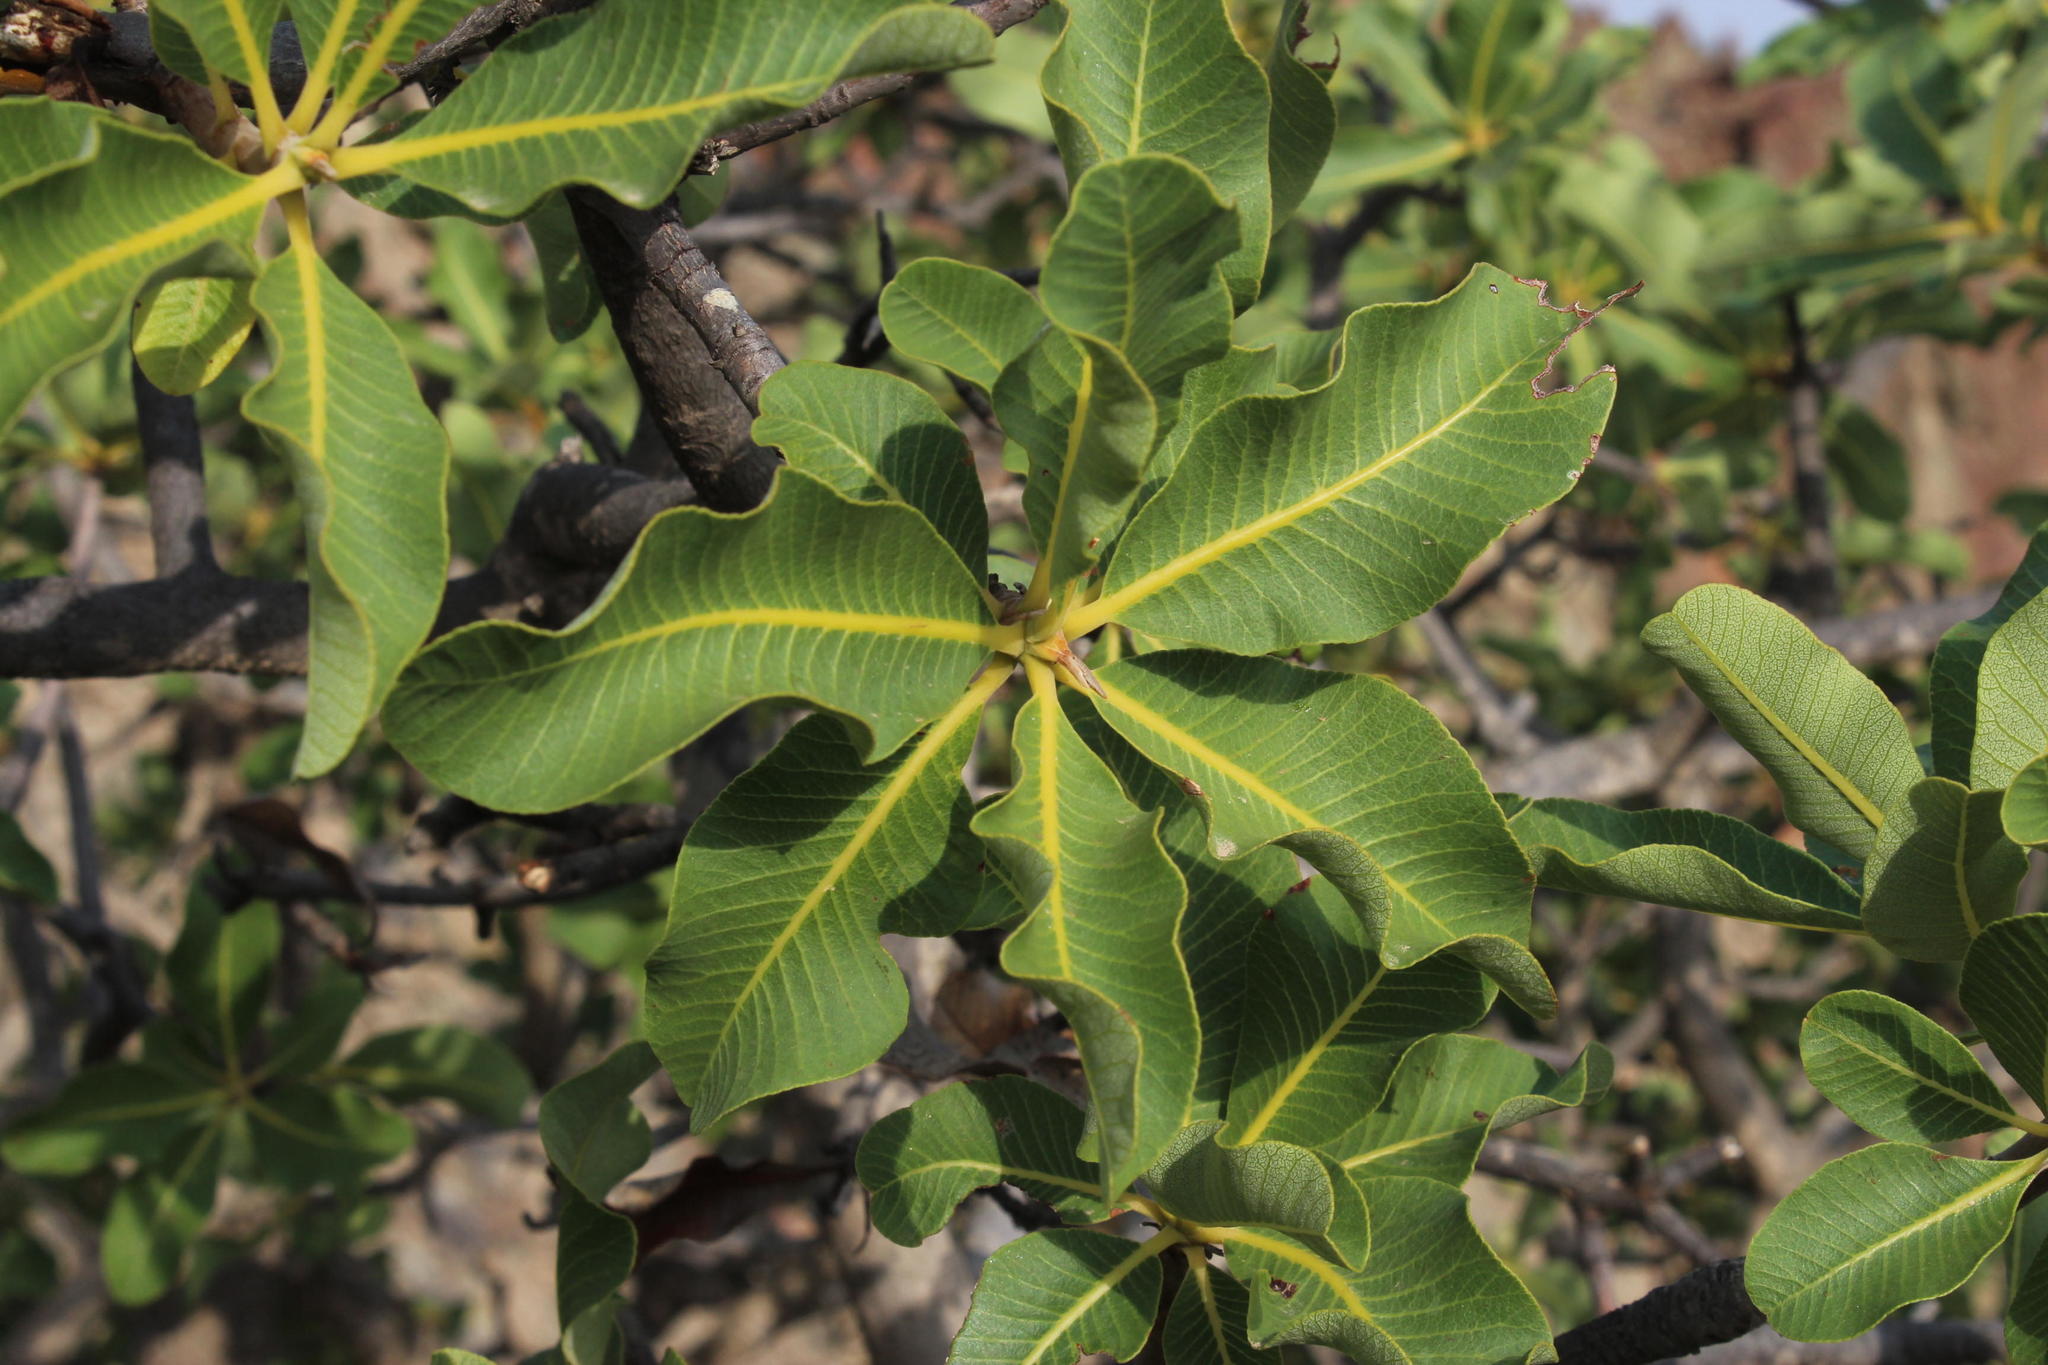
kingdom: Plantae
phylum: Tracheophyta
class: Magnoliopsida
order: Sapindales
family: Anacardiaceae
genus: Ozoroa
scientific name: Ozoroa dispar
